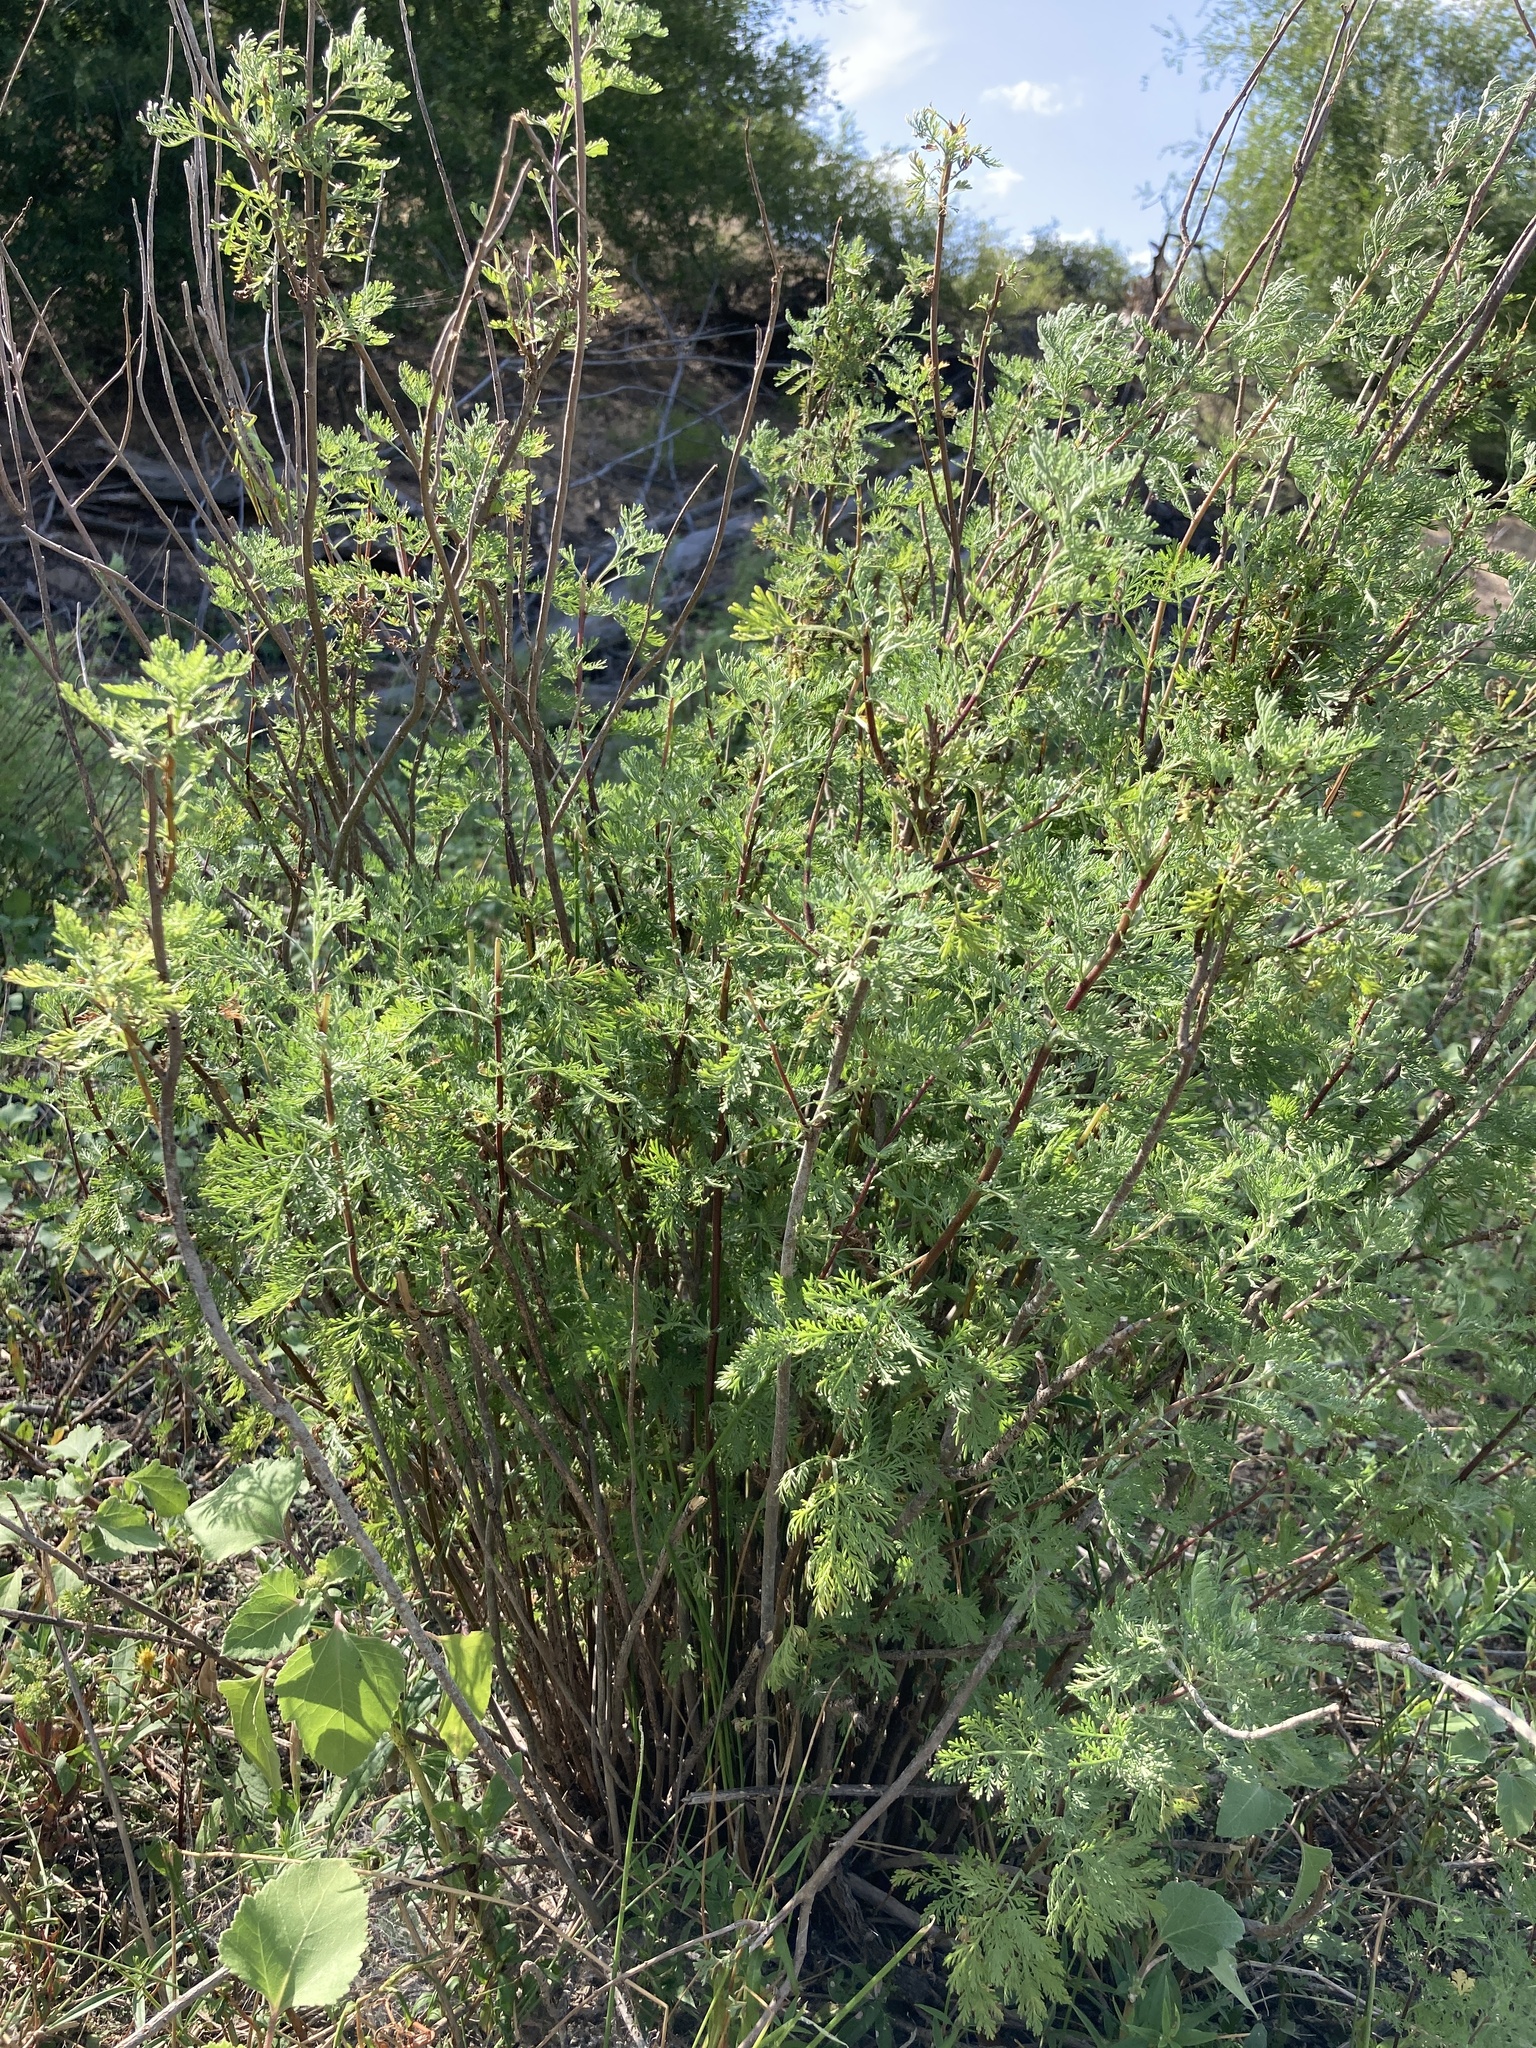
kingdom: Plantae
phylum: Tracheophyta
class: Magnoliopsida
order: Asterales
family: Asteraceae
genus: Artemisia
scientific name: Artemisia abrotanum
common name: Southernwood
